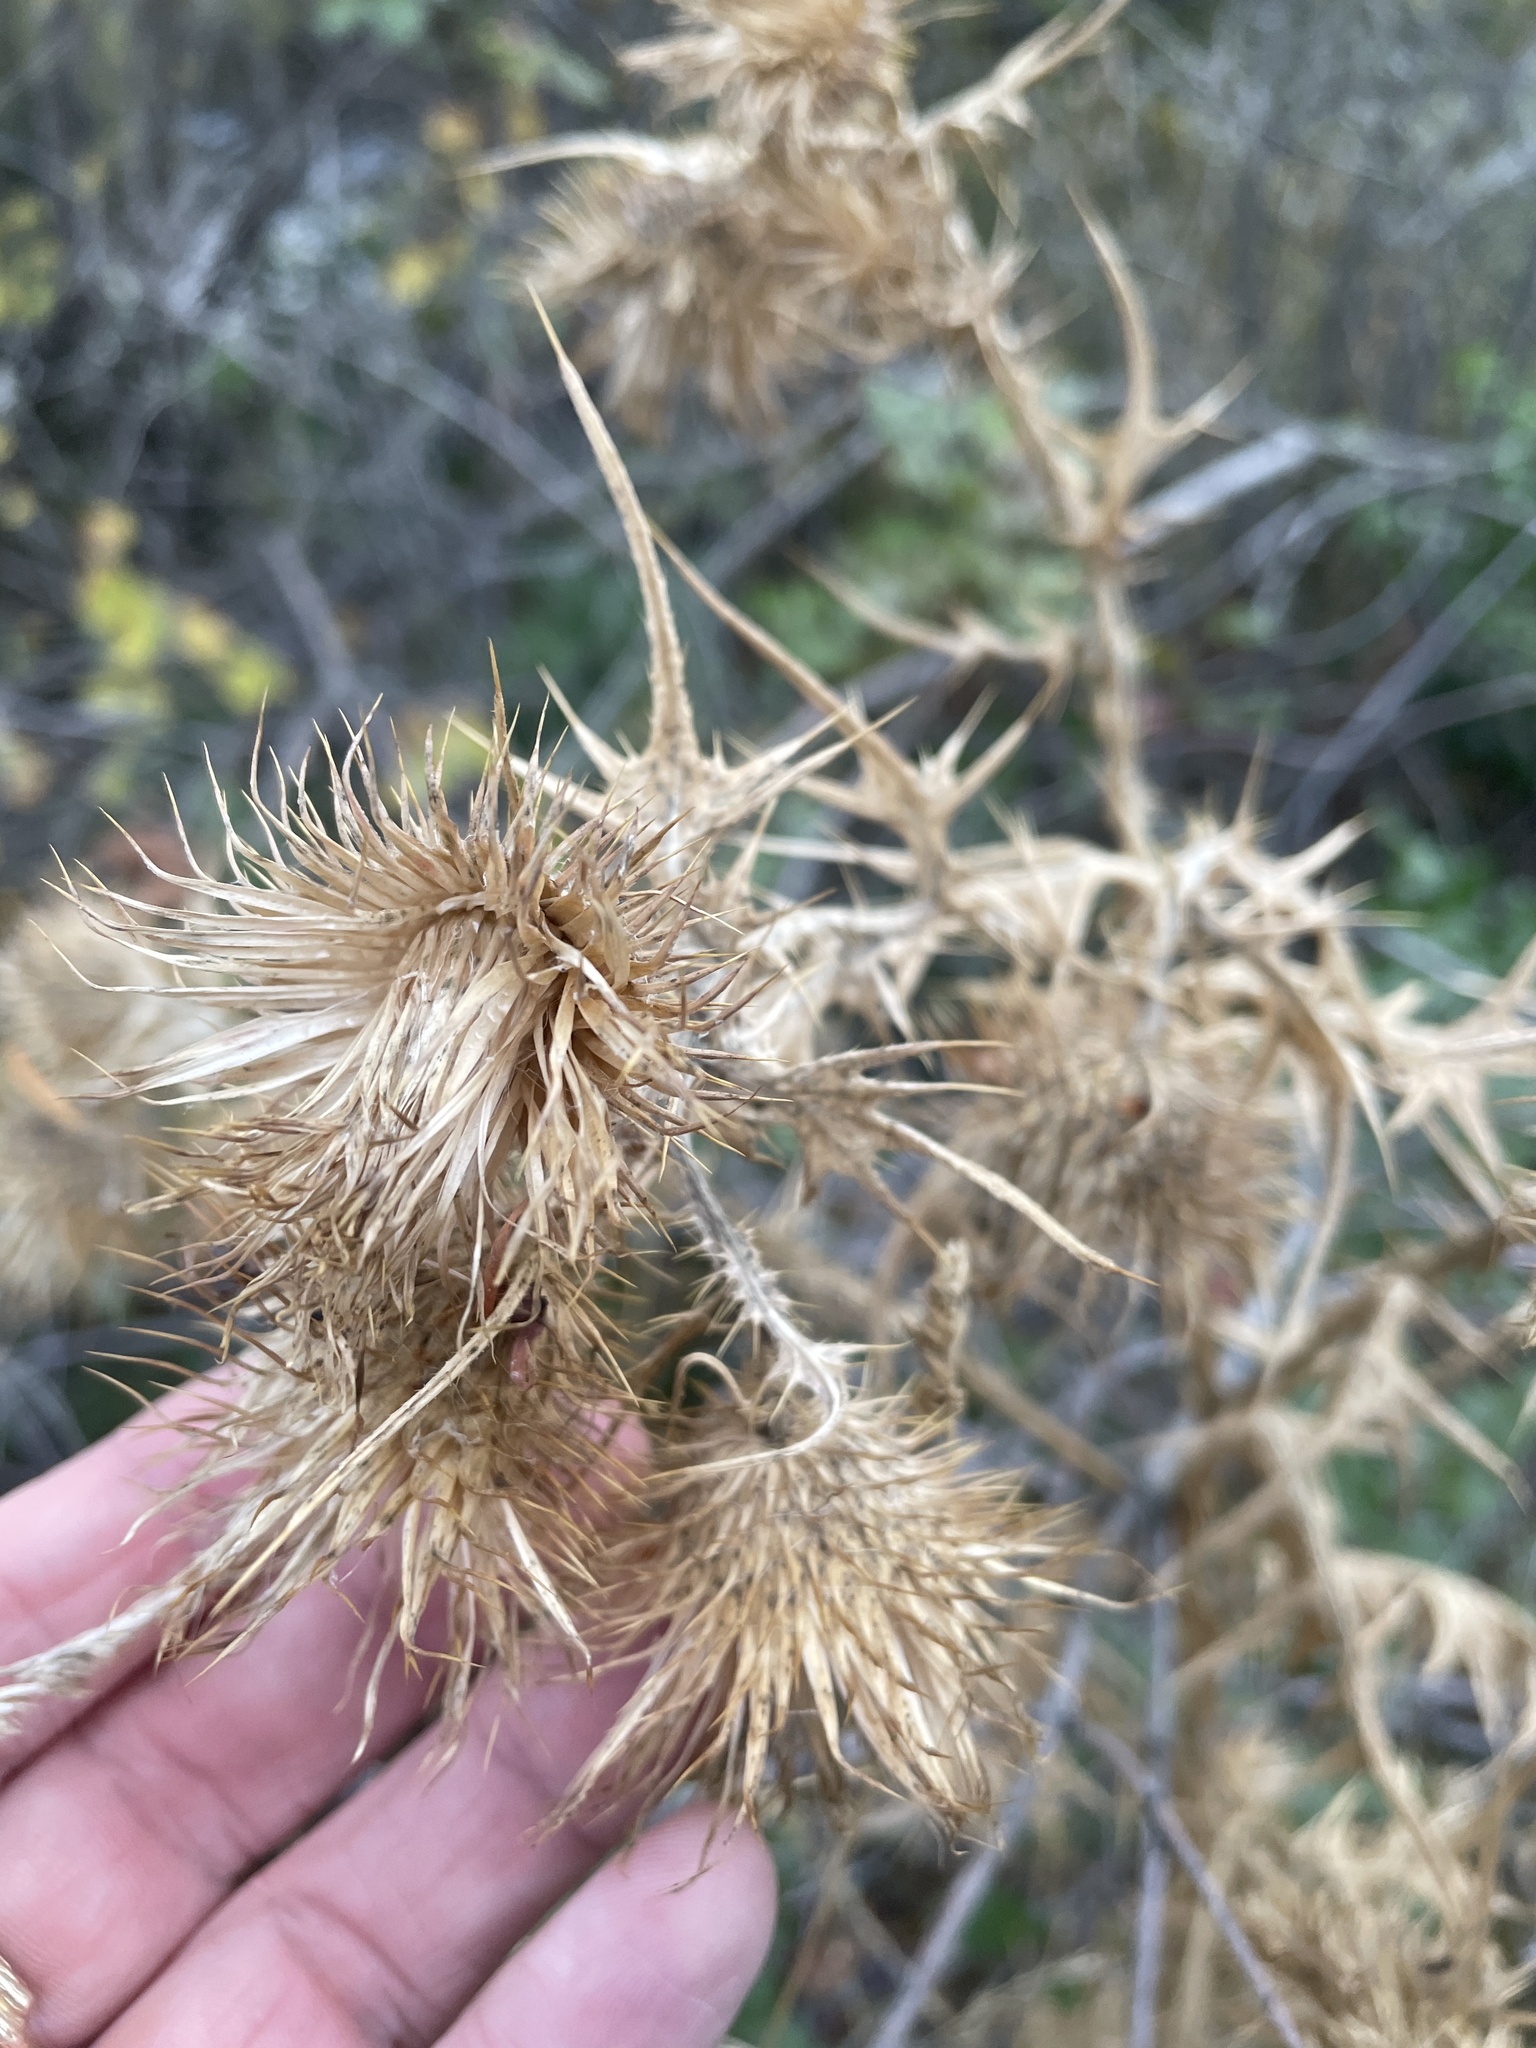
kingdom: Plantae
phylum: Tracheophyta
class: Magnoliopsida
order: Asterales
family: Asteraceae
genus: Cirsium
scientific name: Cirsium vulgare
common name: Bull thistle
